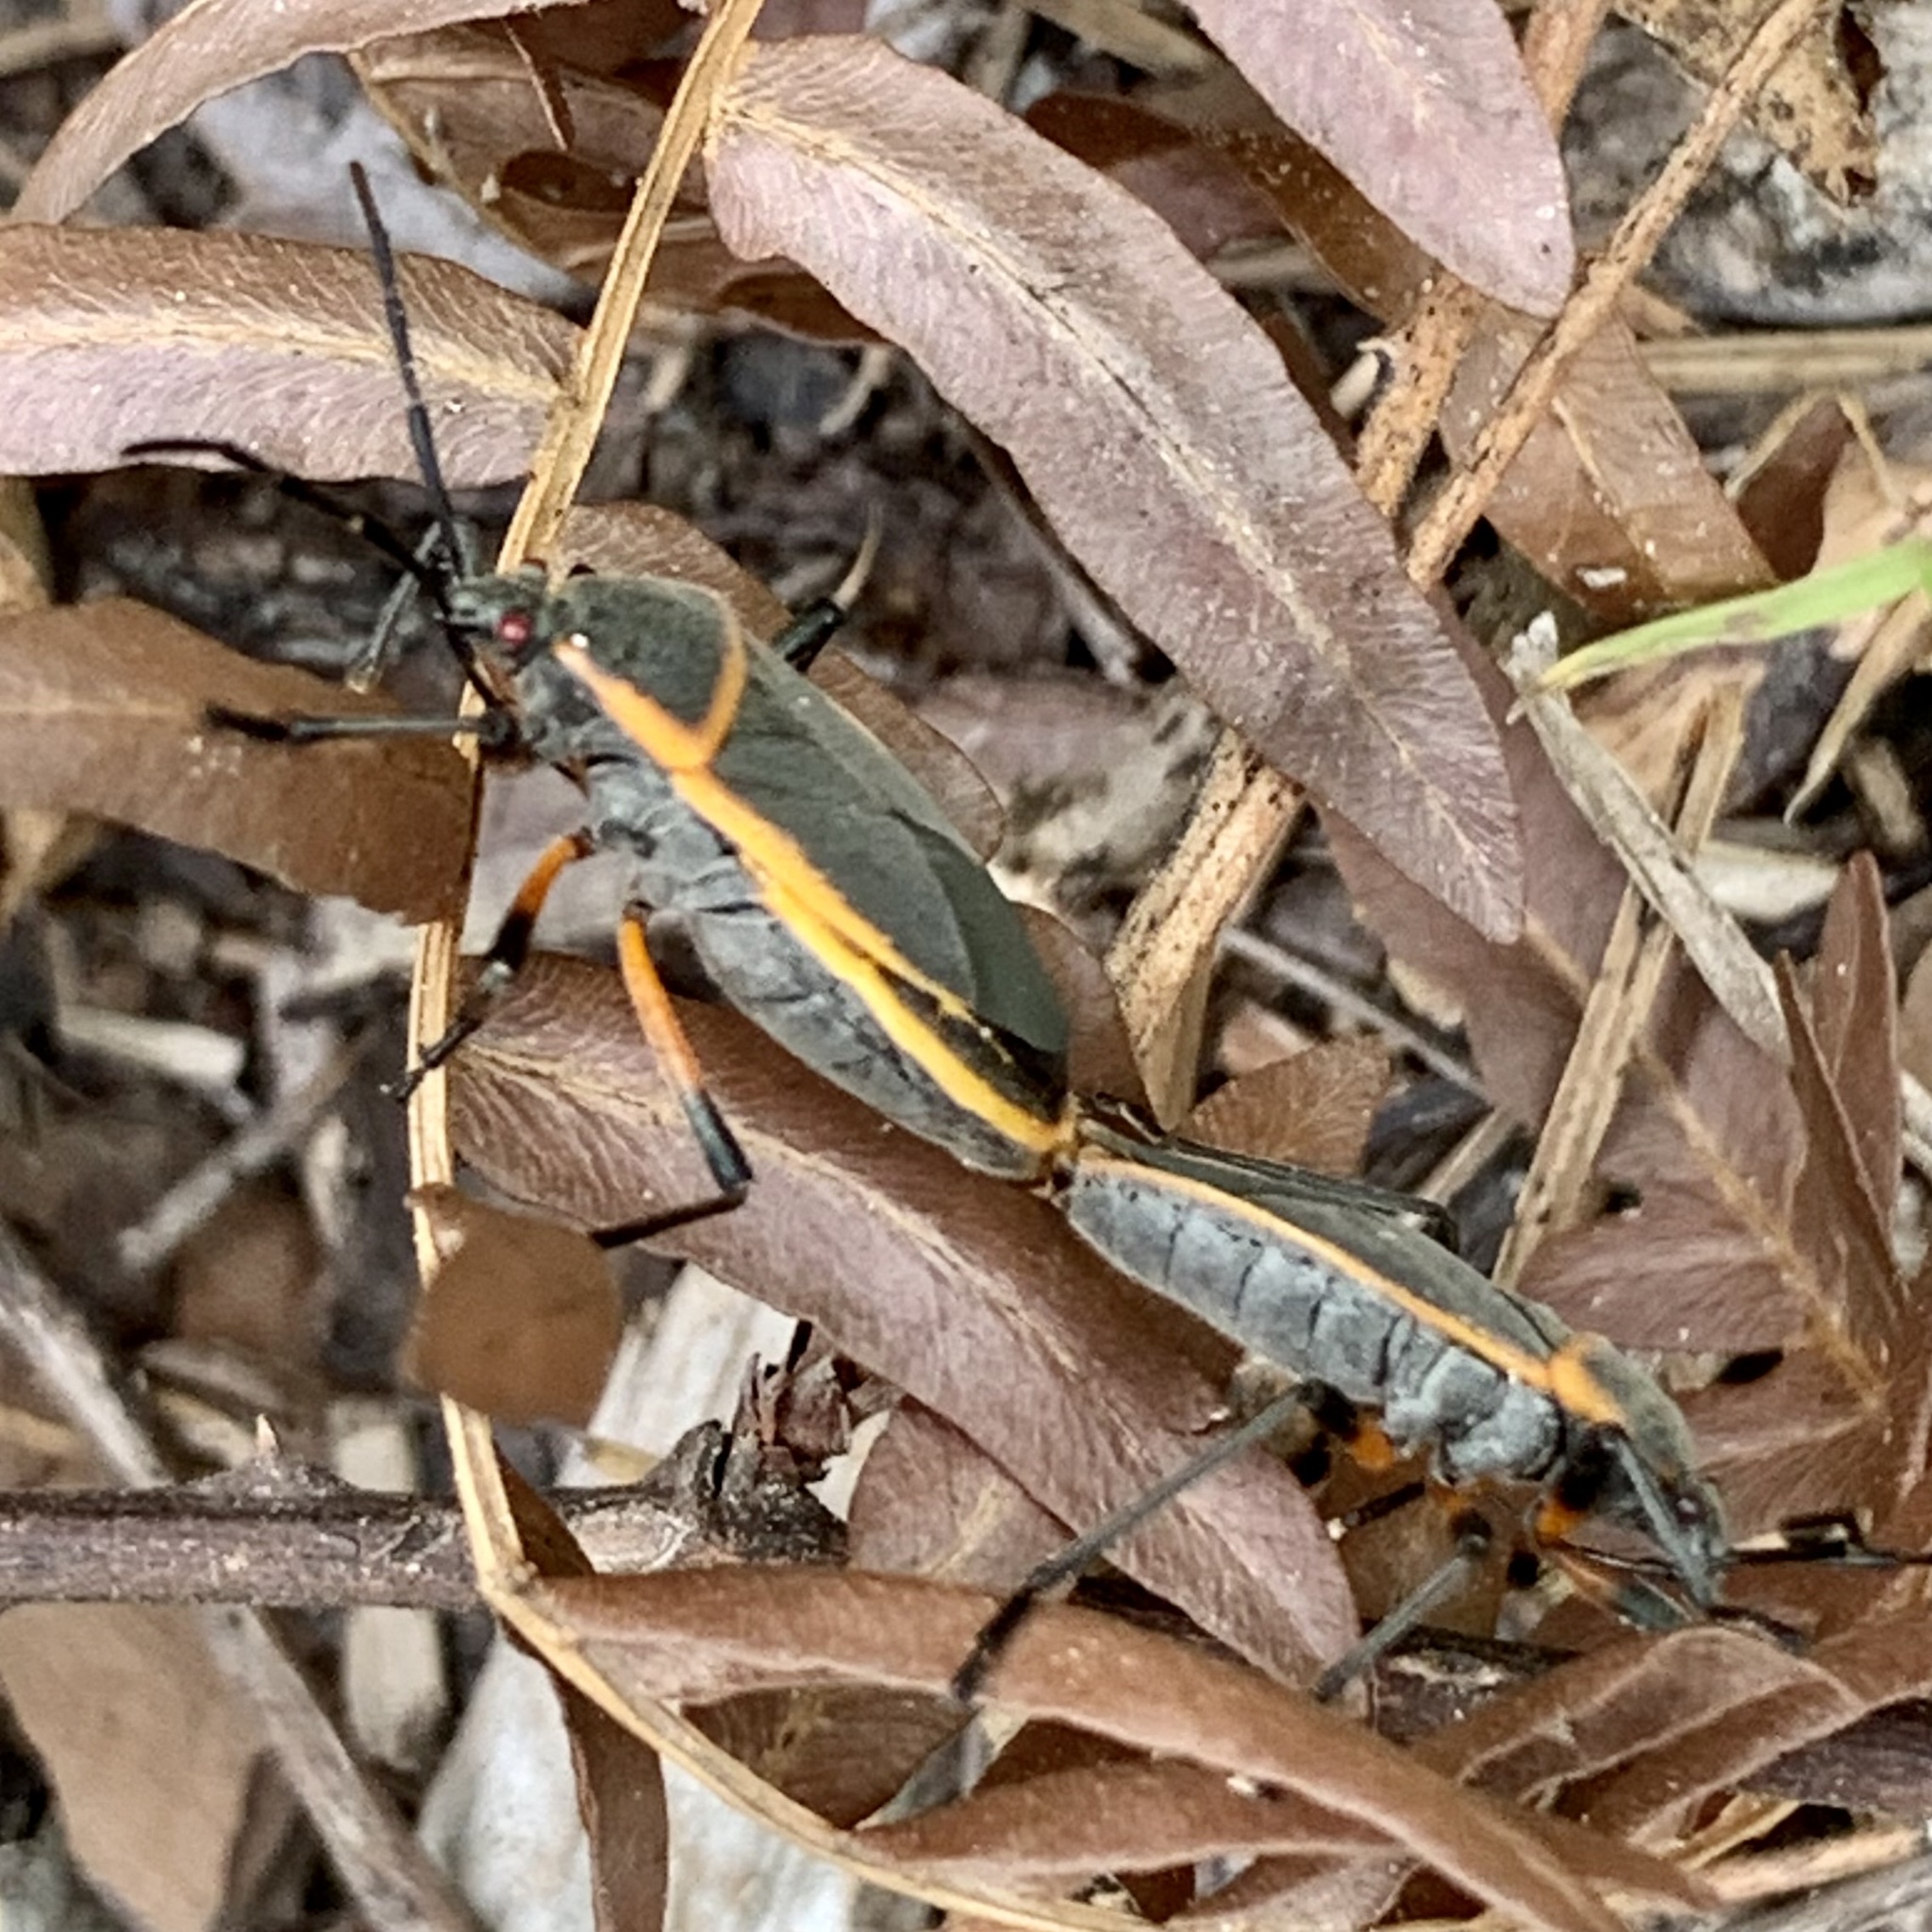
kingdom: Animalia
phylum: Arthropoda
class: Insecta
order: Hemiptera
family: Largidae
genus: Largus
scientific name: Largus succinctus
